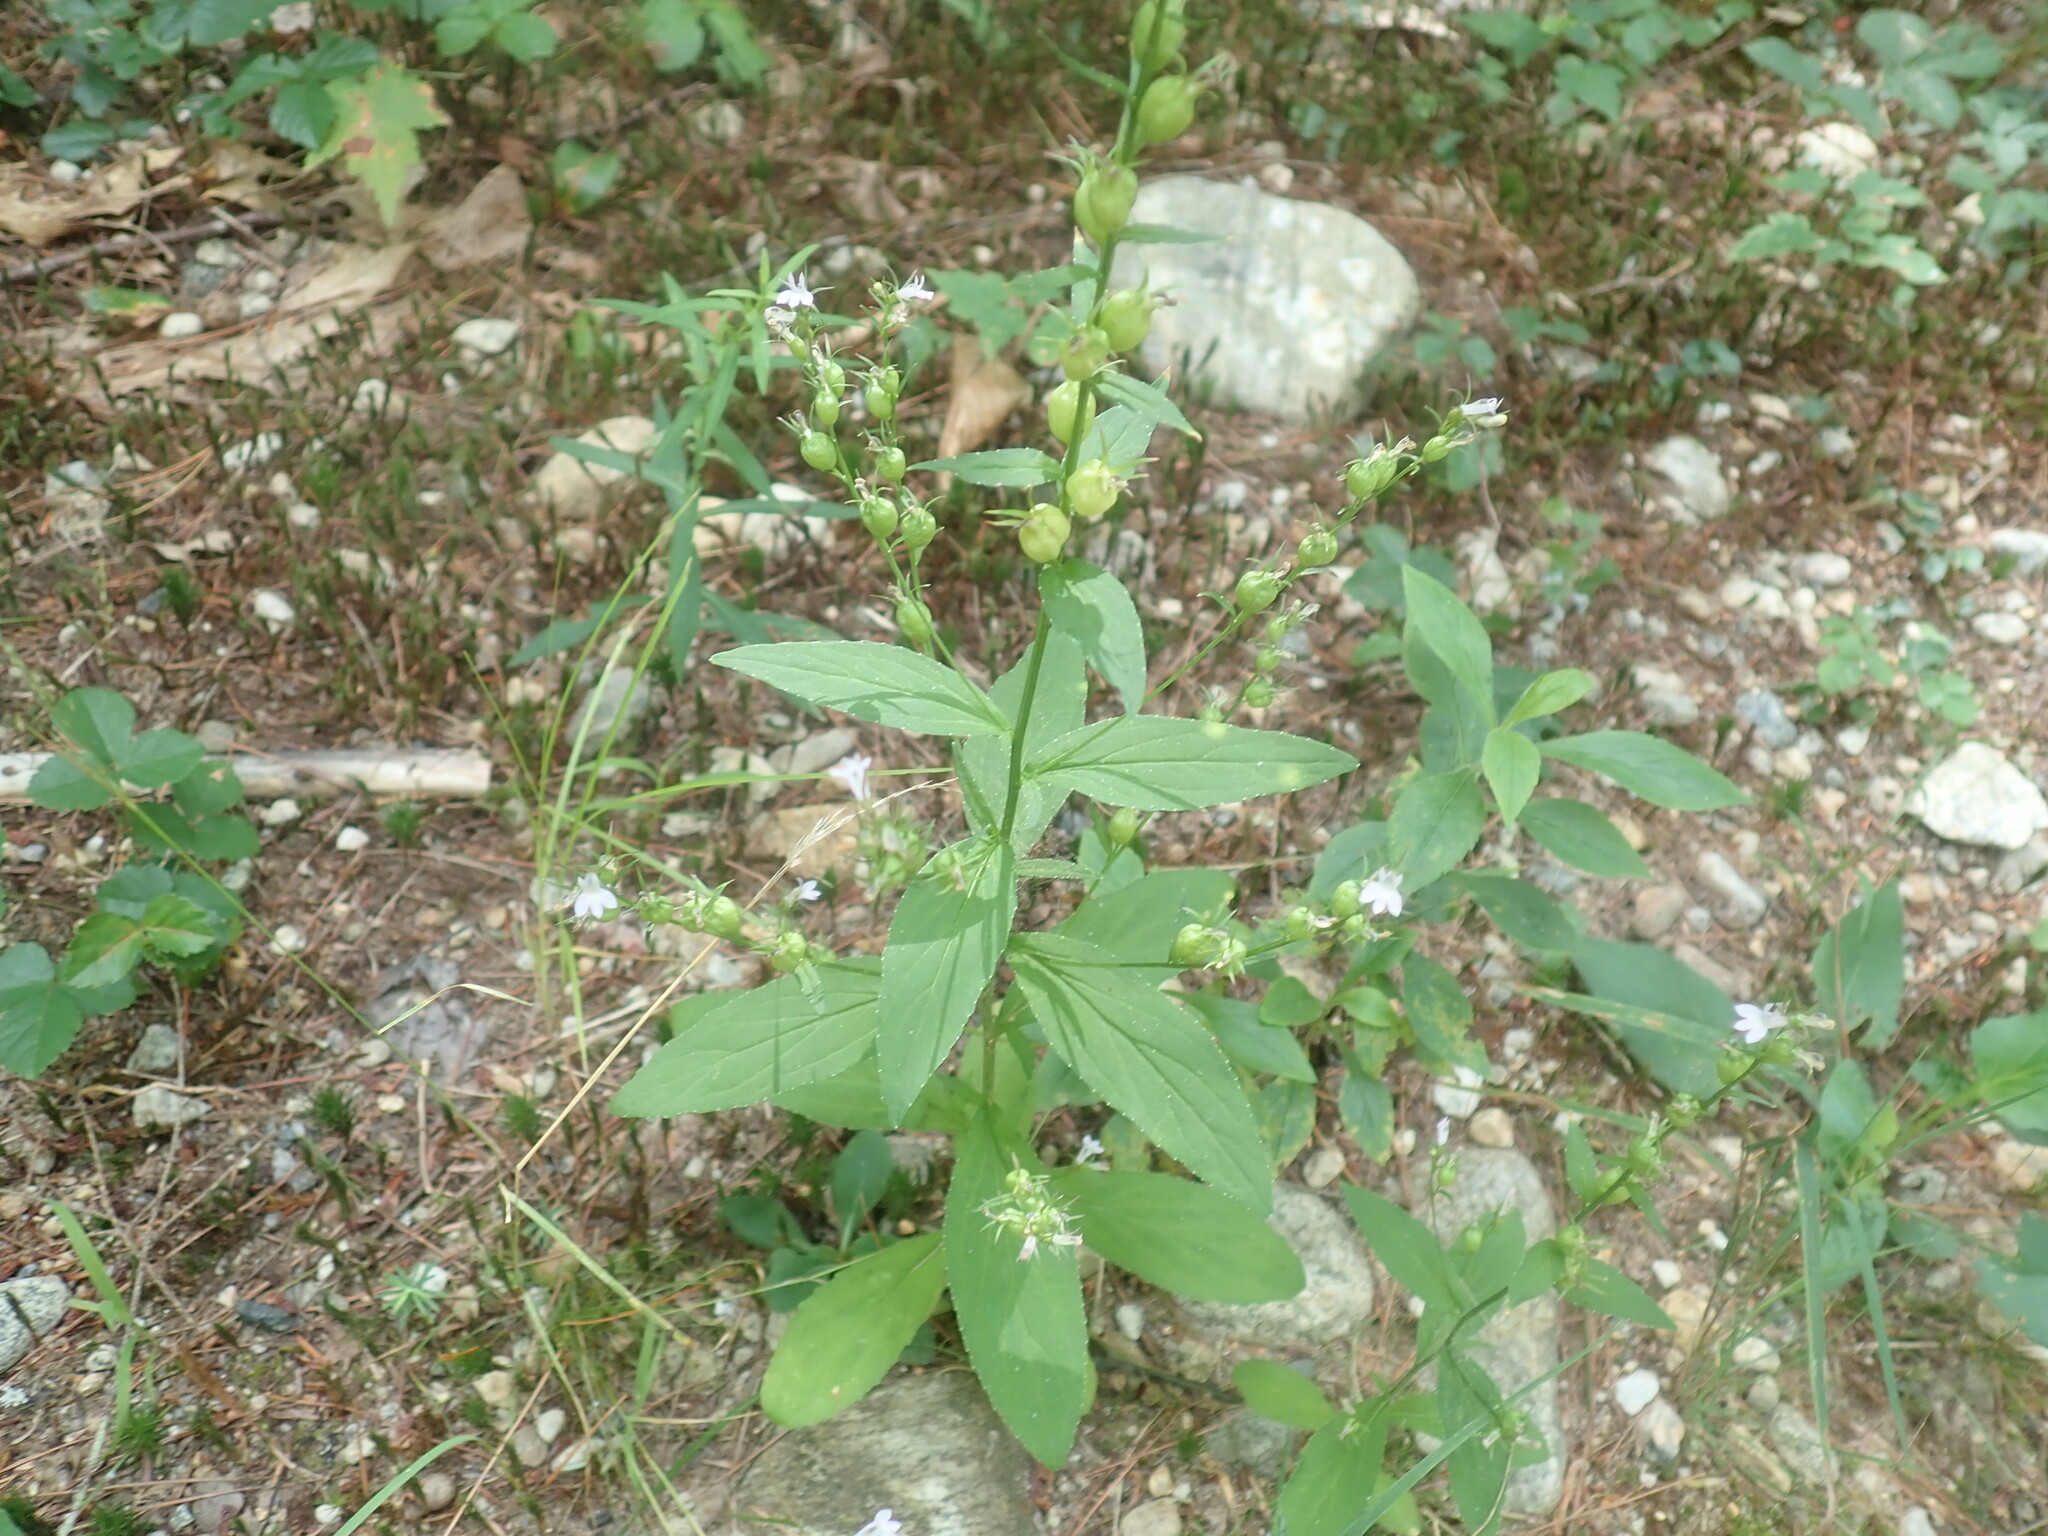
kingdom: Plantae
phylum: Tracheophyta
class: Magnoliopsida
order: Asterales
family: Campanulaceae
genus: Lobelia
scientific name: Lobelia inflata
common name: Indian tobacco
